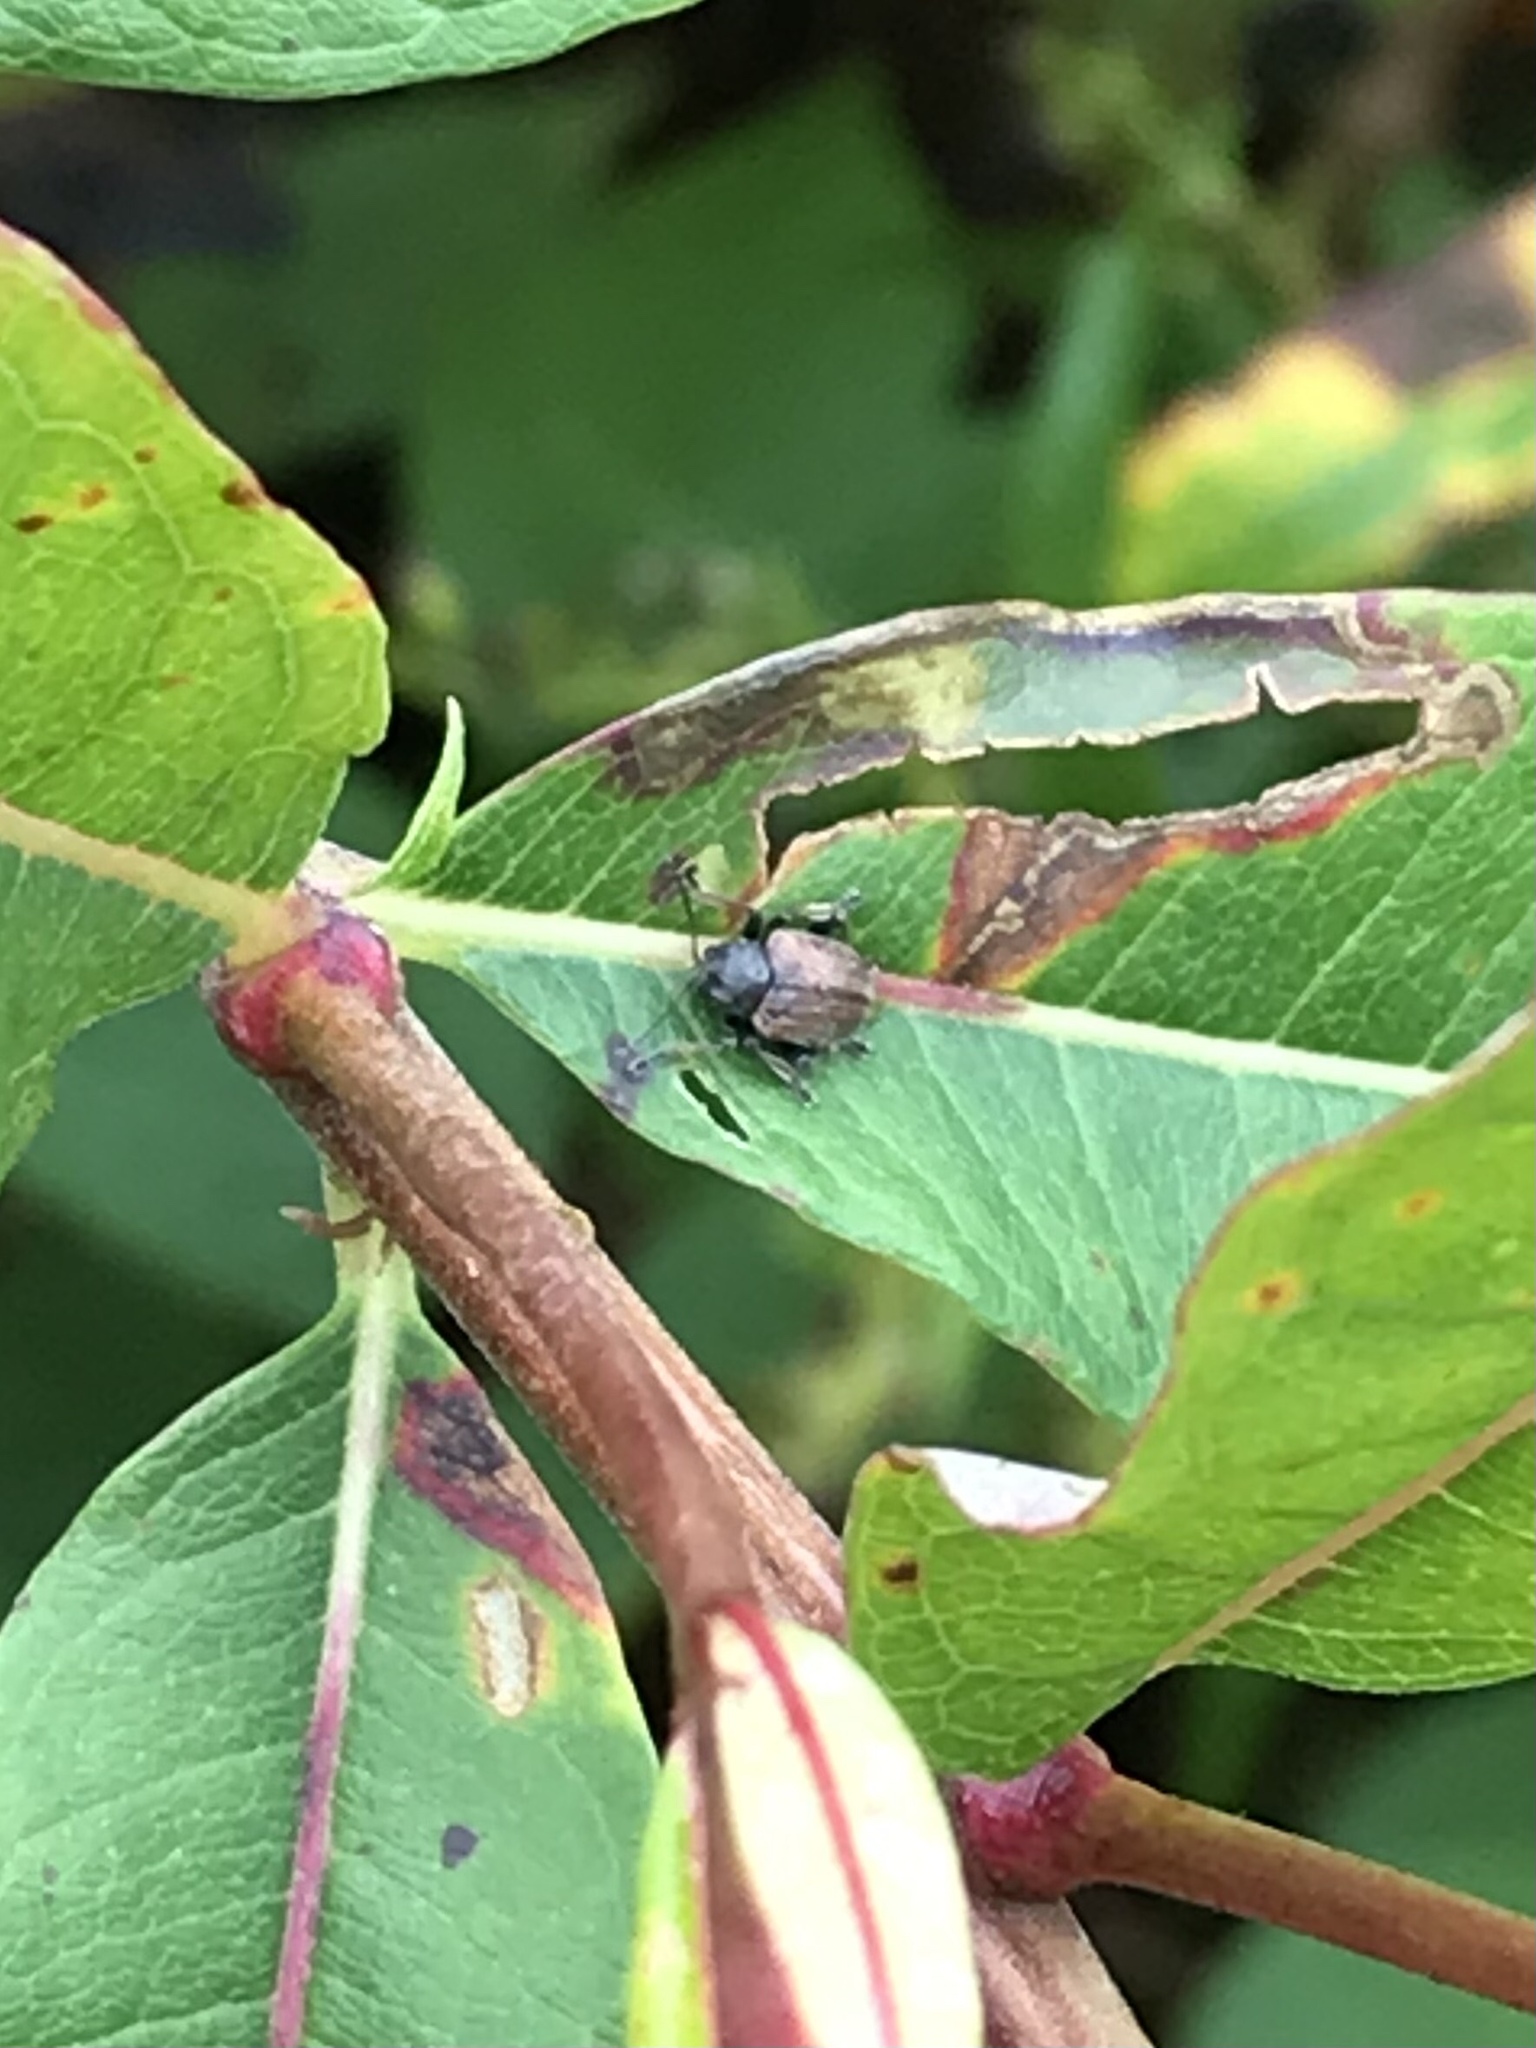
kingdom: Animalia
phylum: Arthropoda
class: Insecta
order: Coleoptera
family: Chrysomelidae
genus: Bromius
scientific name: Bromius obscurus
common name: Western grape rootworm
